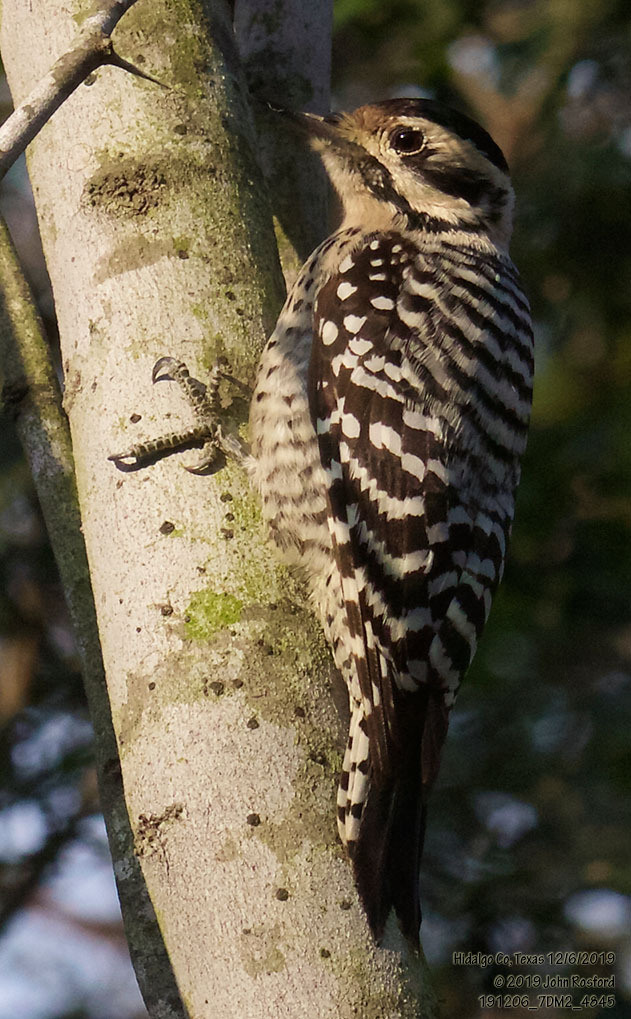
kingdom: Animalia
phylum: Chordata
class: Aves
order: Piciformes
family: Picidae
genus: Dryobates
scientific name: Dryobates scalaris
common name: Ladder-backed woodpecker
